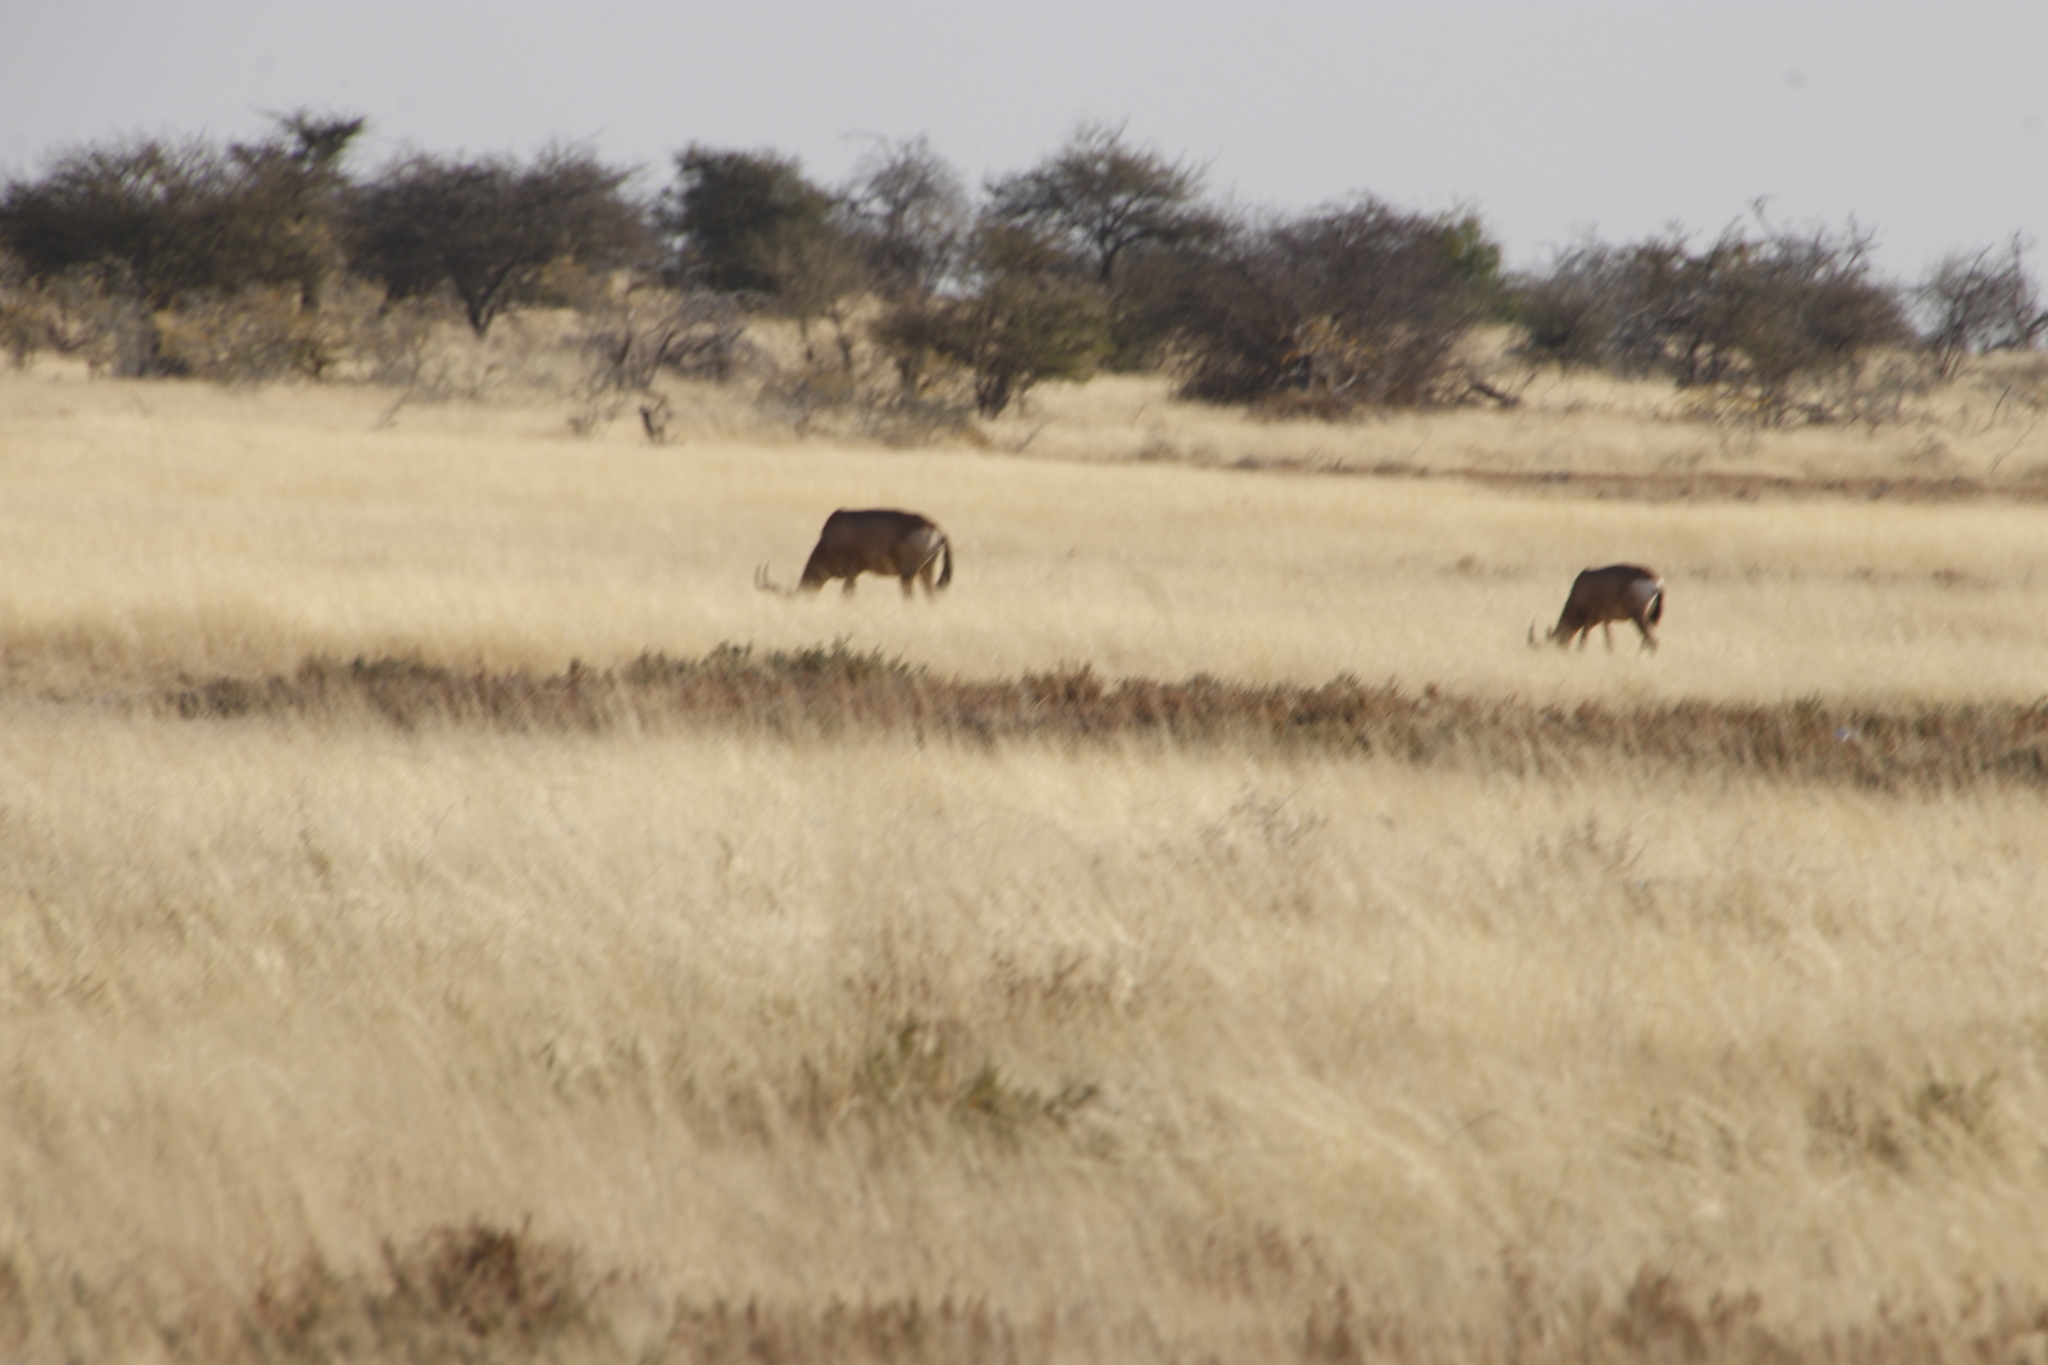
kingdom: Animalia
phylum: Chordata
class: Mammalia
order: Artiodactyla
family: Bovidae
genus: Alcelaphus
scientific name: Alcelaphus caama
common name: Red hartebeest
